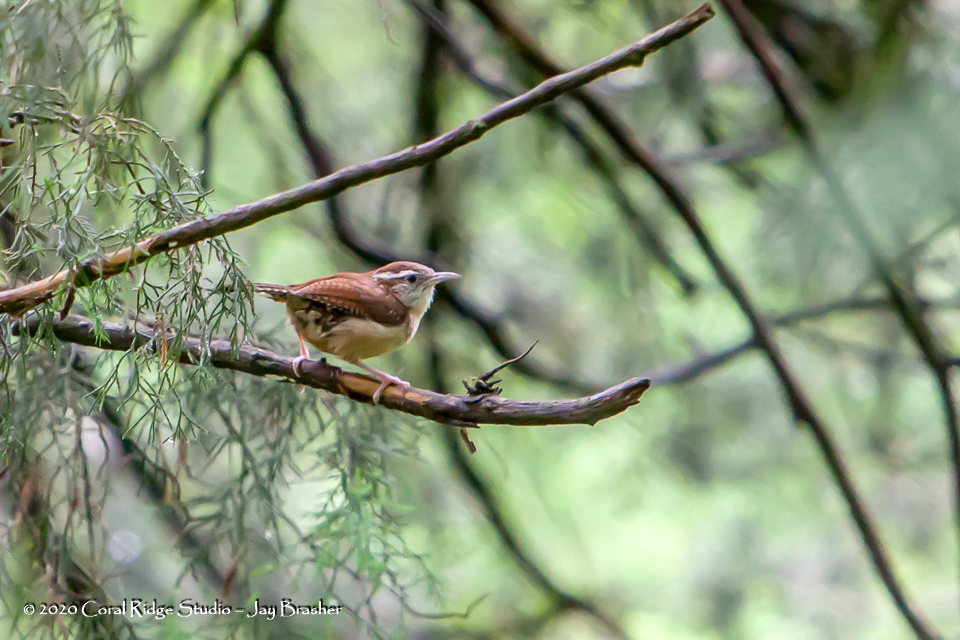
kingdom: Animalia
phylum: Chordata
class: Aves
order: Passeriformes
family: Troglodytidae
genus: Thryothorus
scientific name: Thryothorus ludovicianus
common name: Carolina wren
